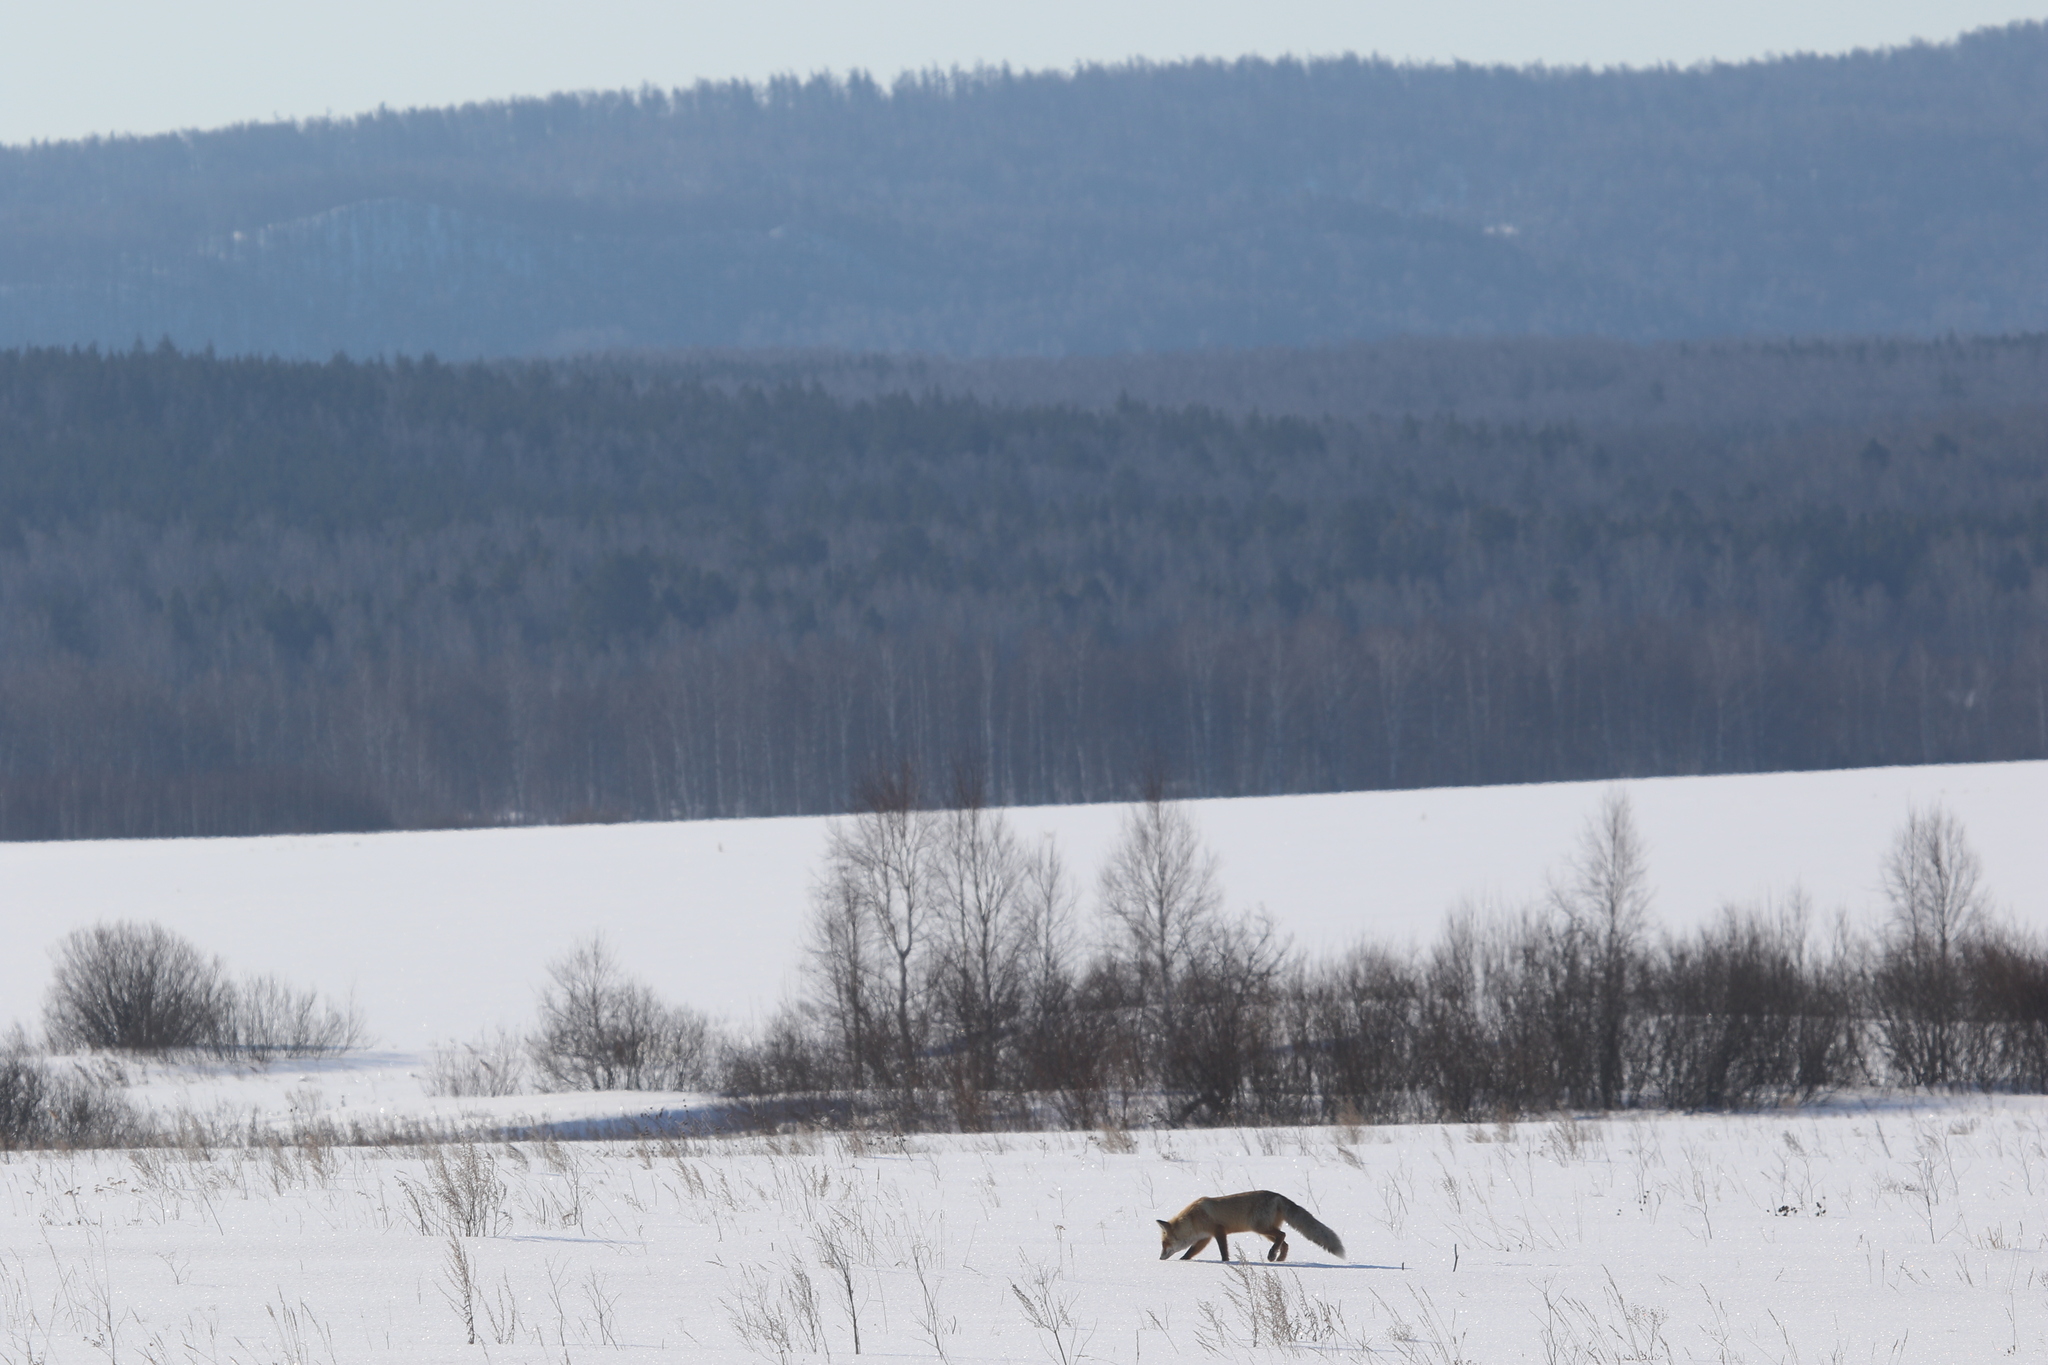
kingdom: Animalia
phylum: Chordata
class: Mammalia
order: Carnivora
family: Canidae
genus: Vulpes
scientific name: Vulpes vulpes
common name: Red fox
